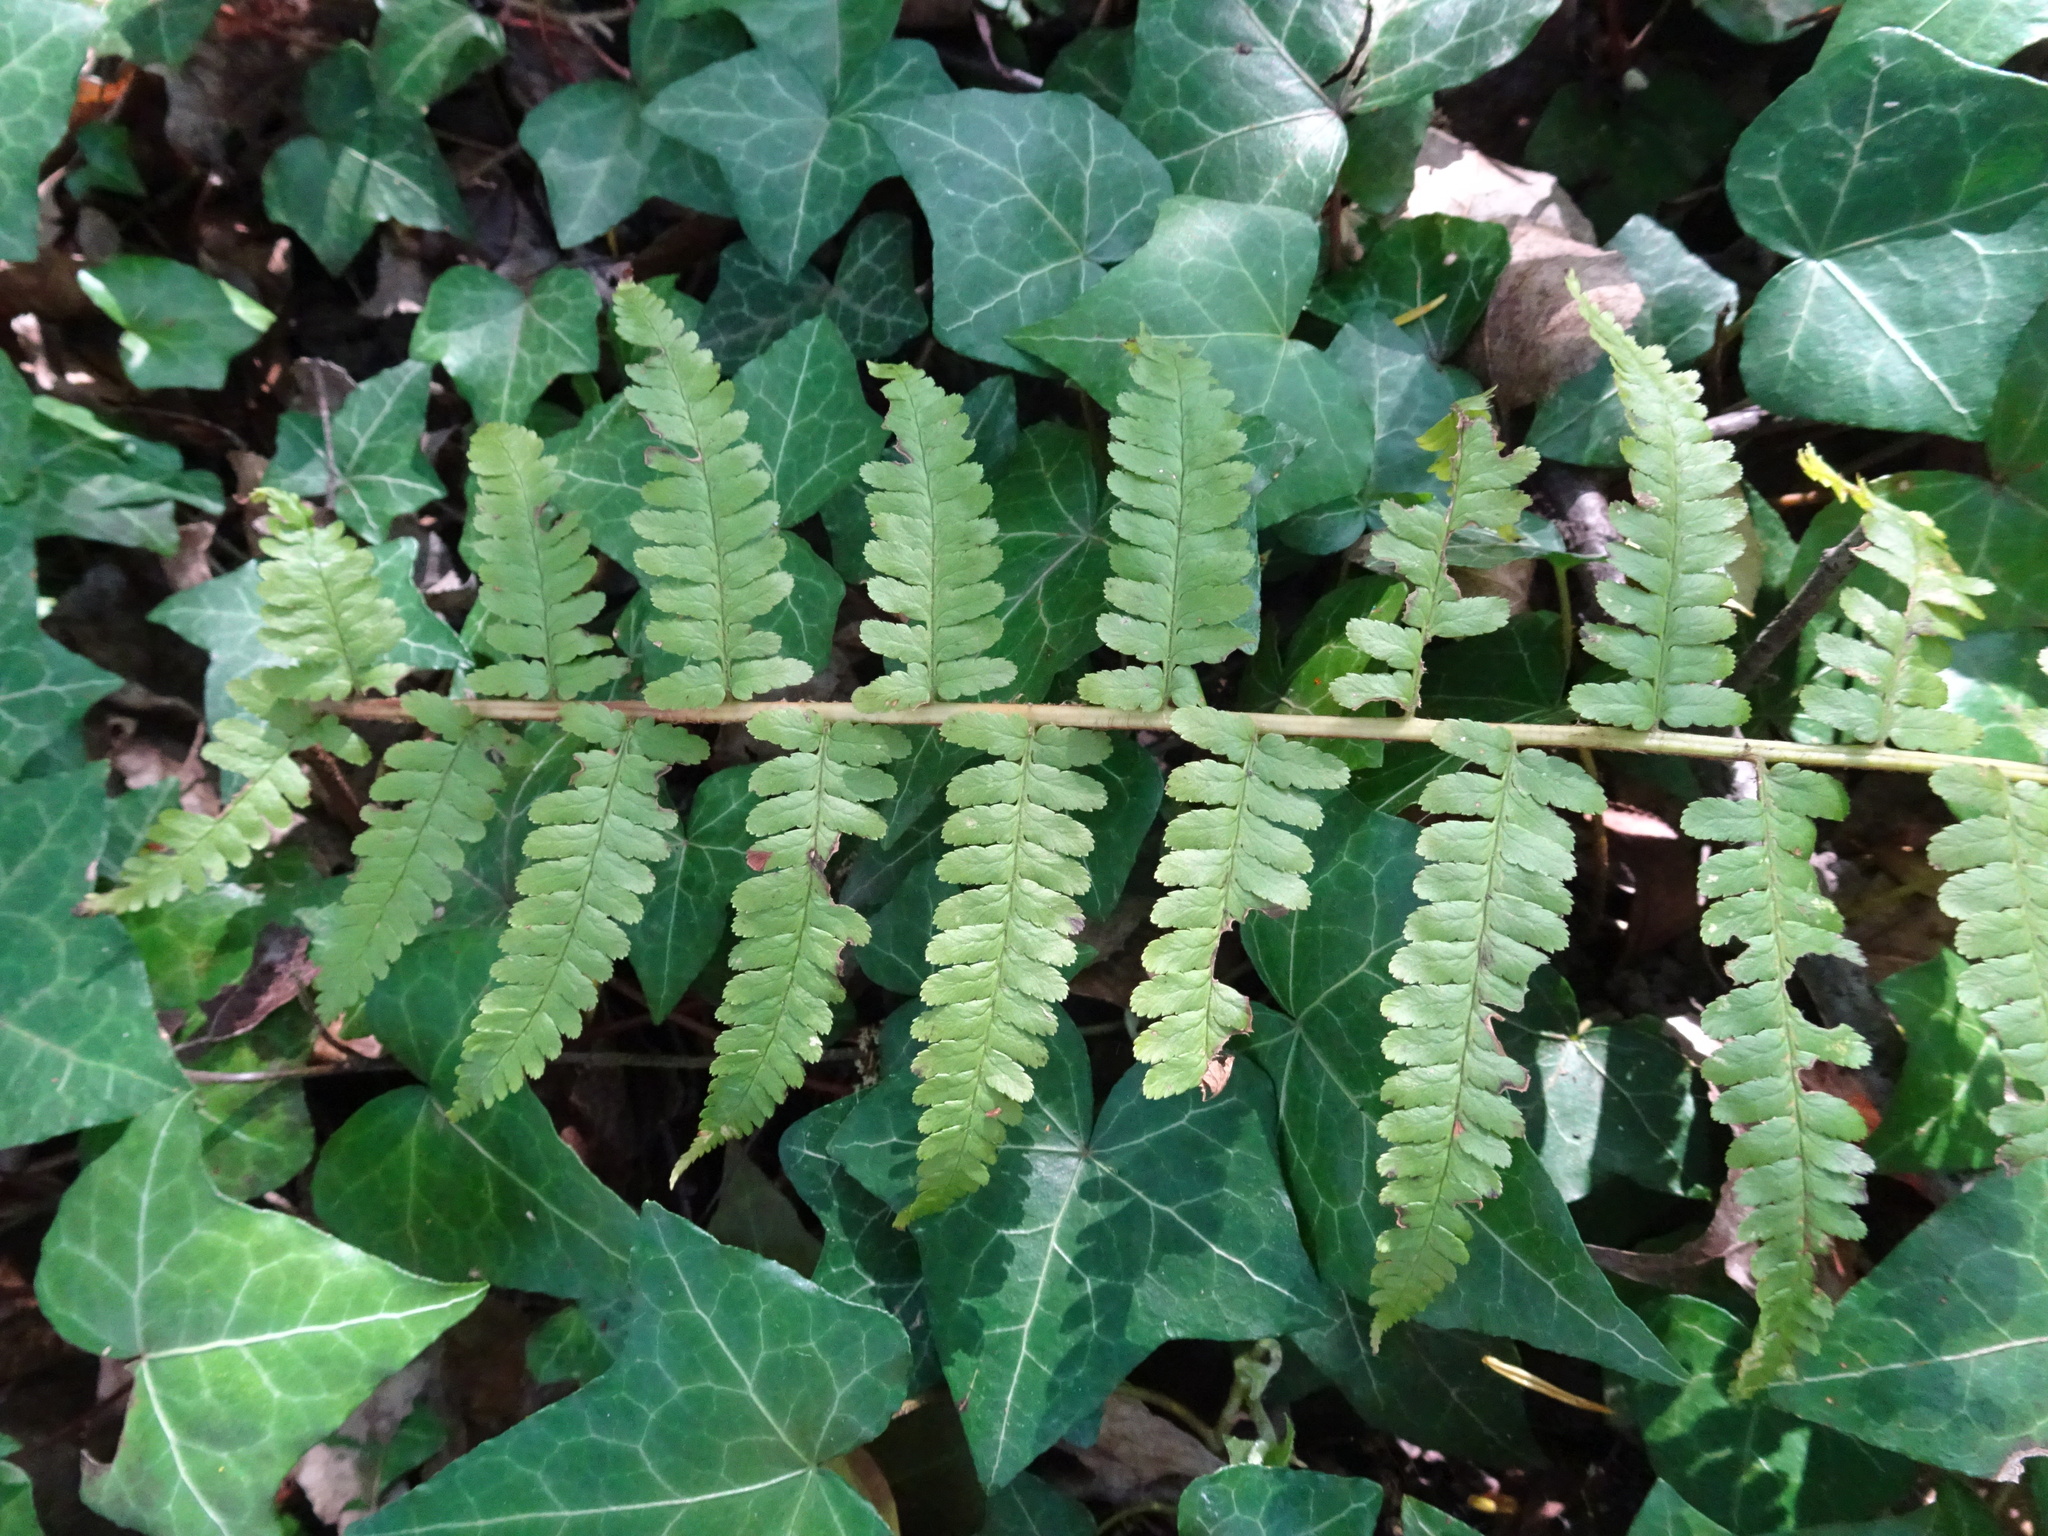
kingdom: Plantae
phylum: Tracheophyta
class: Polypodiopsida
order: Polypodiales
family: Dryopteridaceae
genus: Dryopteris
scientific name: Dryopteris filix-mas
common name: Male fern
